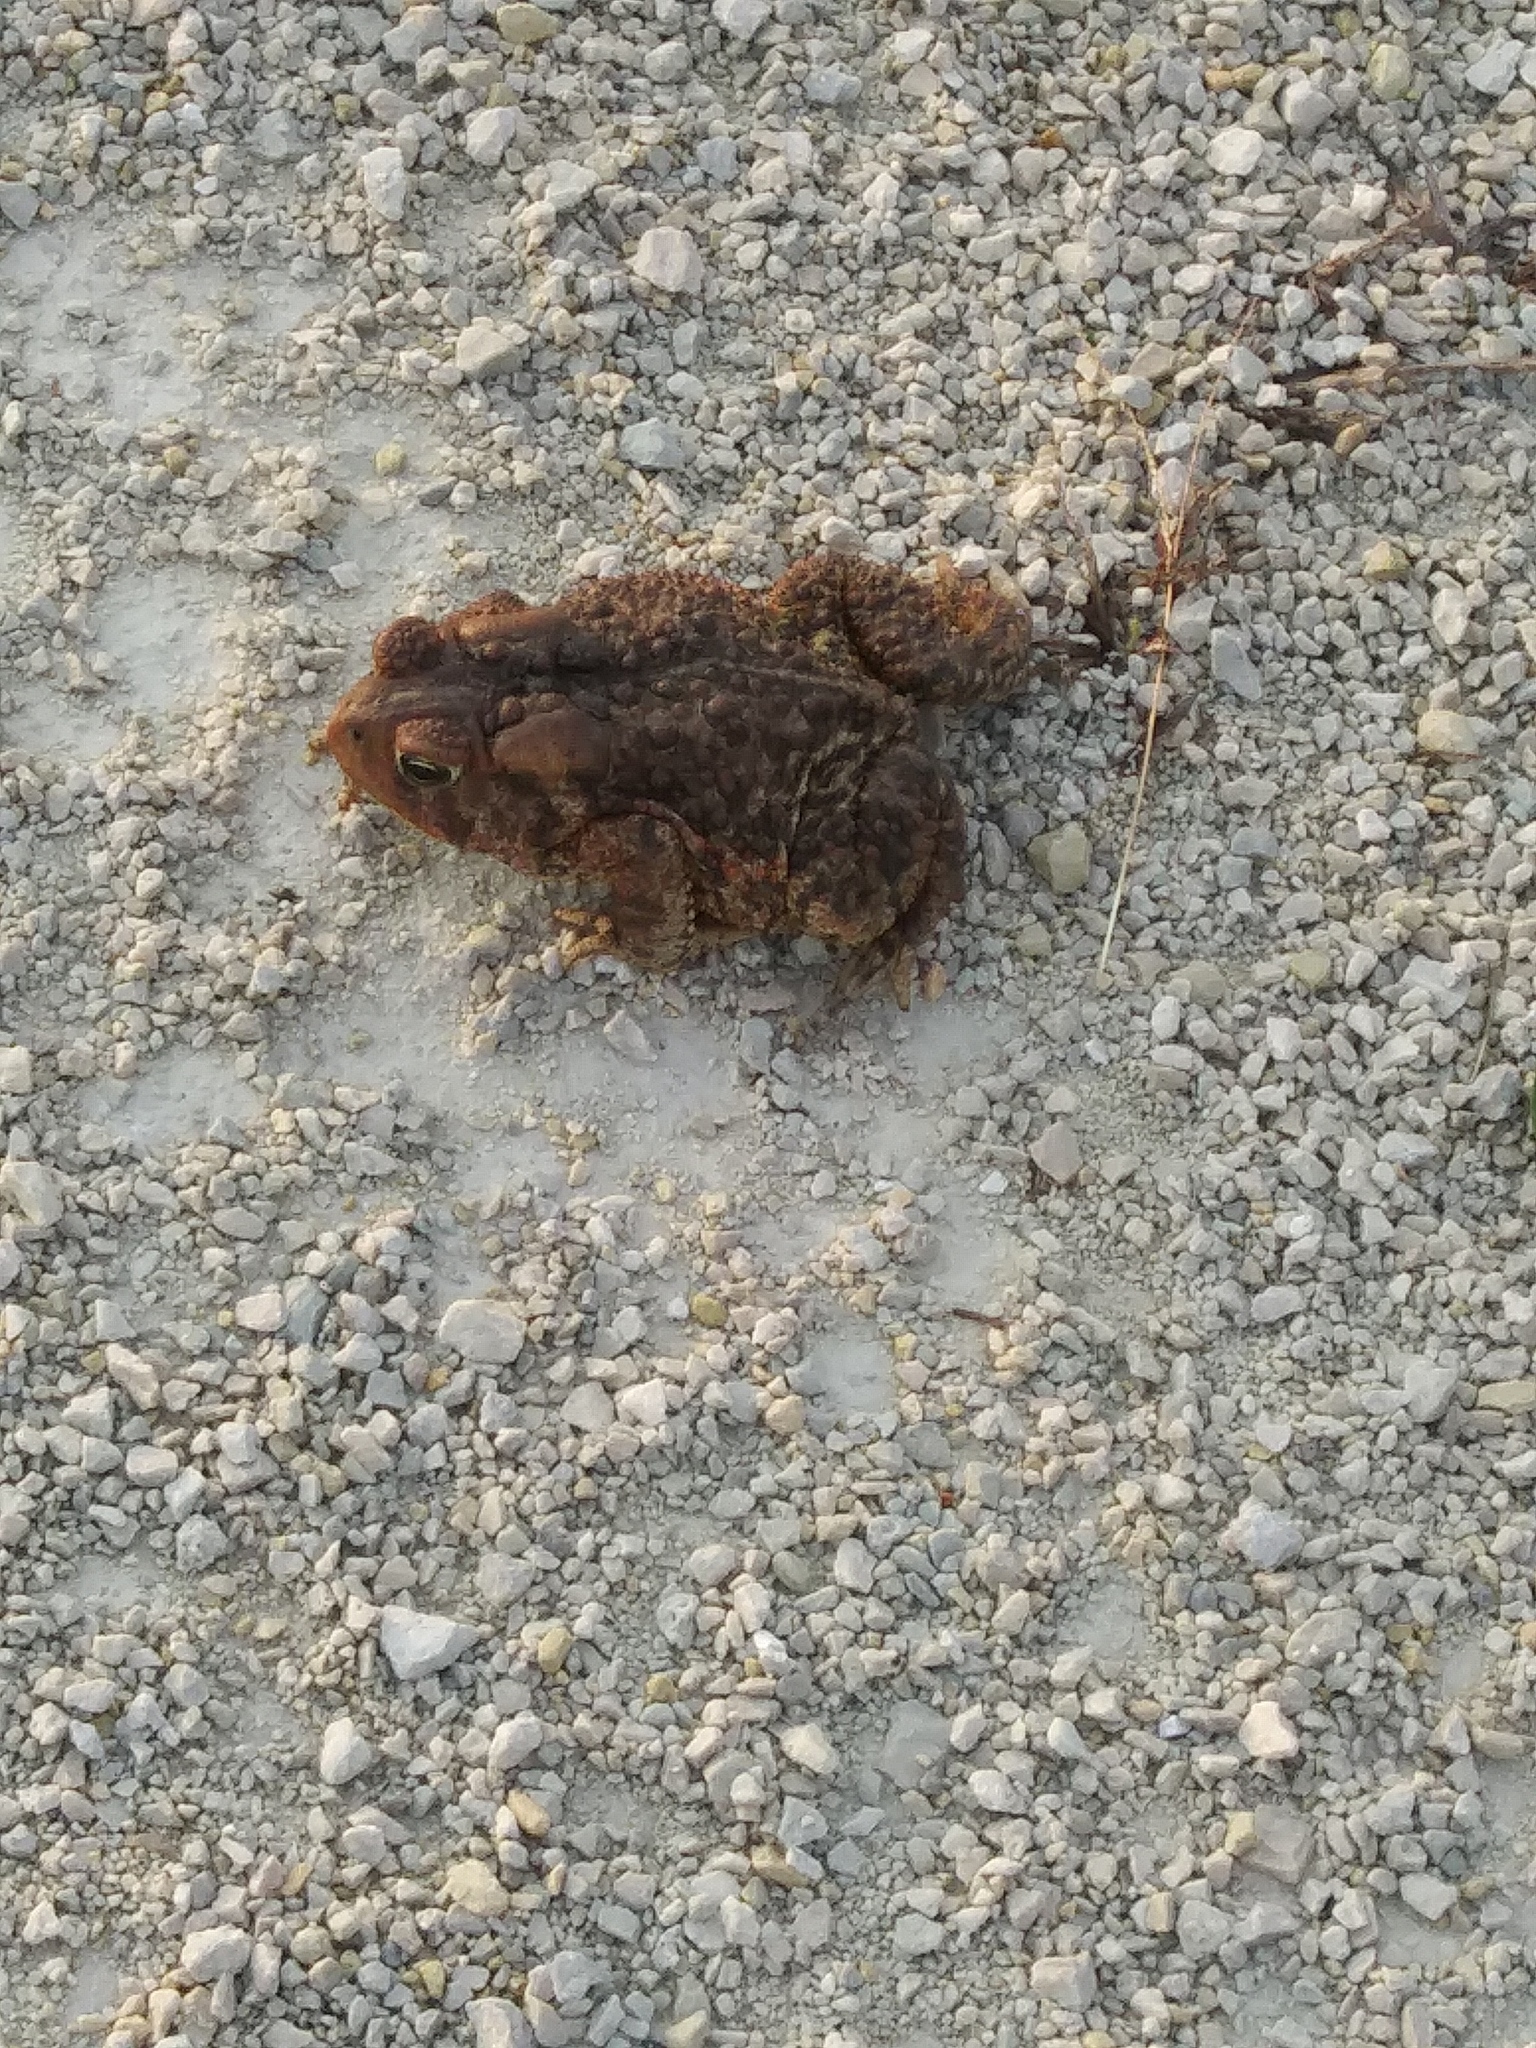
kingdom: Animalia
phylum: Chordata
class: Amphibia
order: Anura
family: Bufonidae
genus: Anaxyrus
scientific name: Anaxyrus americanus
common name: American toad
